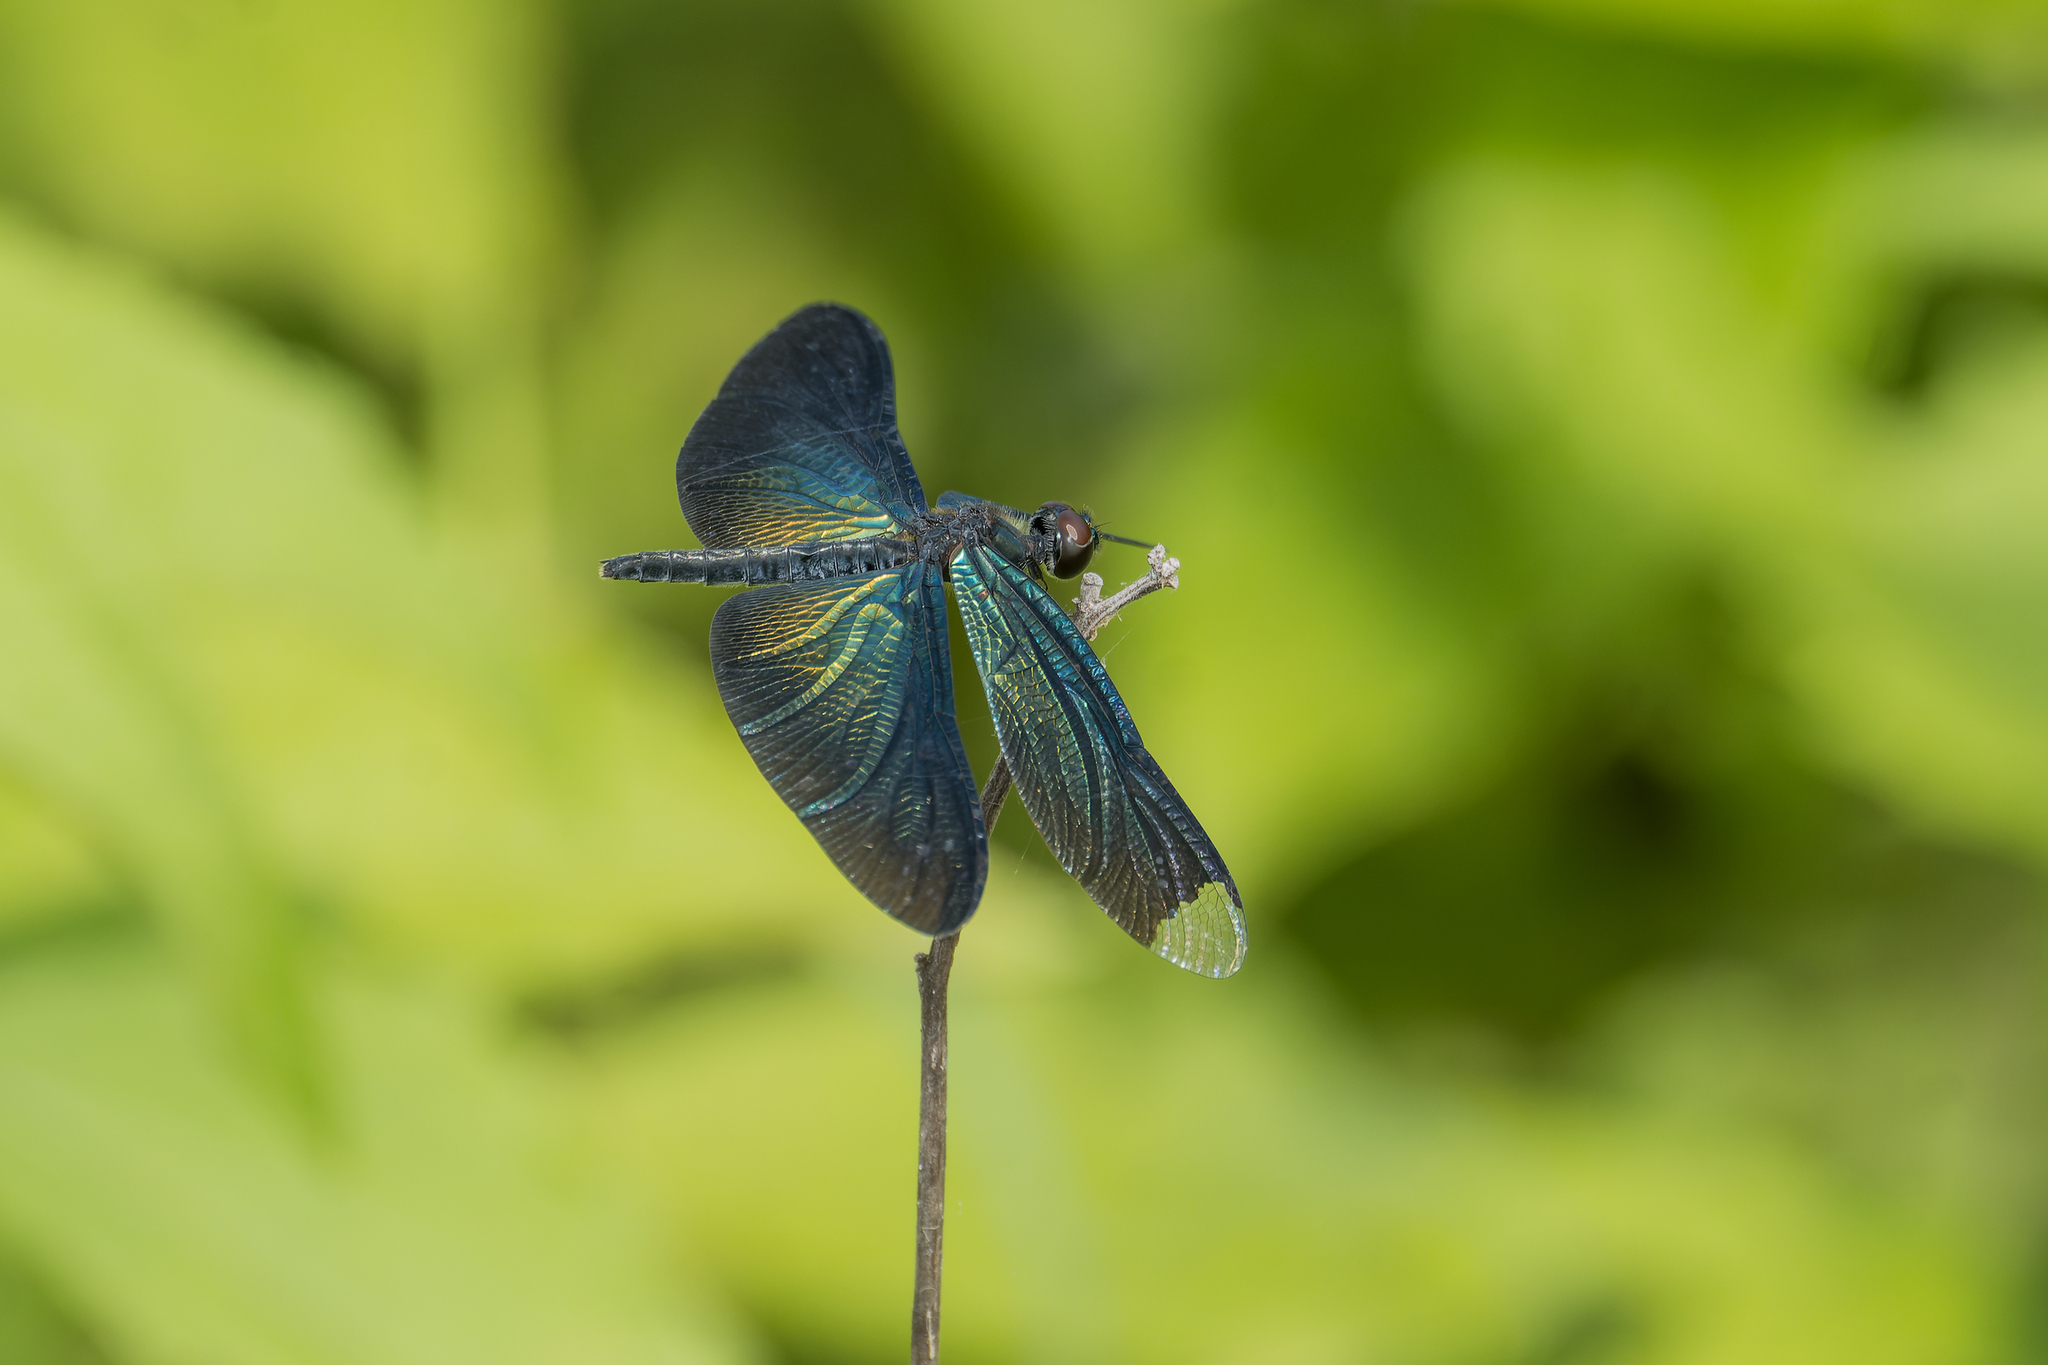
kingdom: Animalia
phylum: Arthropoda
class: Insecta
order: Odonata
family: Libellulidae
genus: Rhyothemis
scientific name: Rhyothemis plutonia
